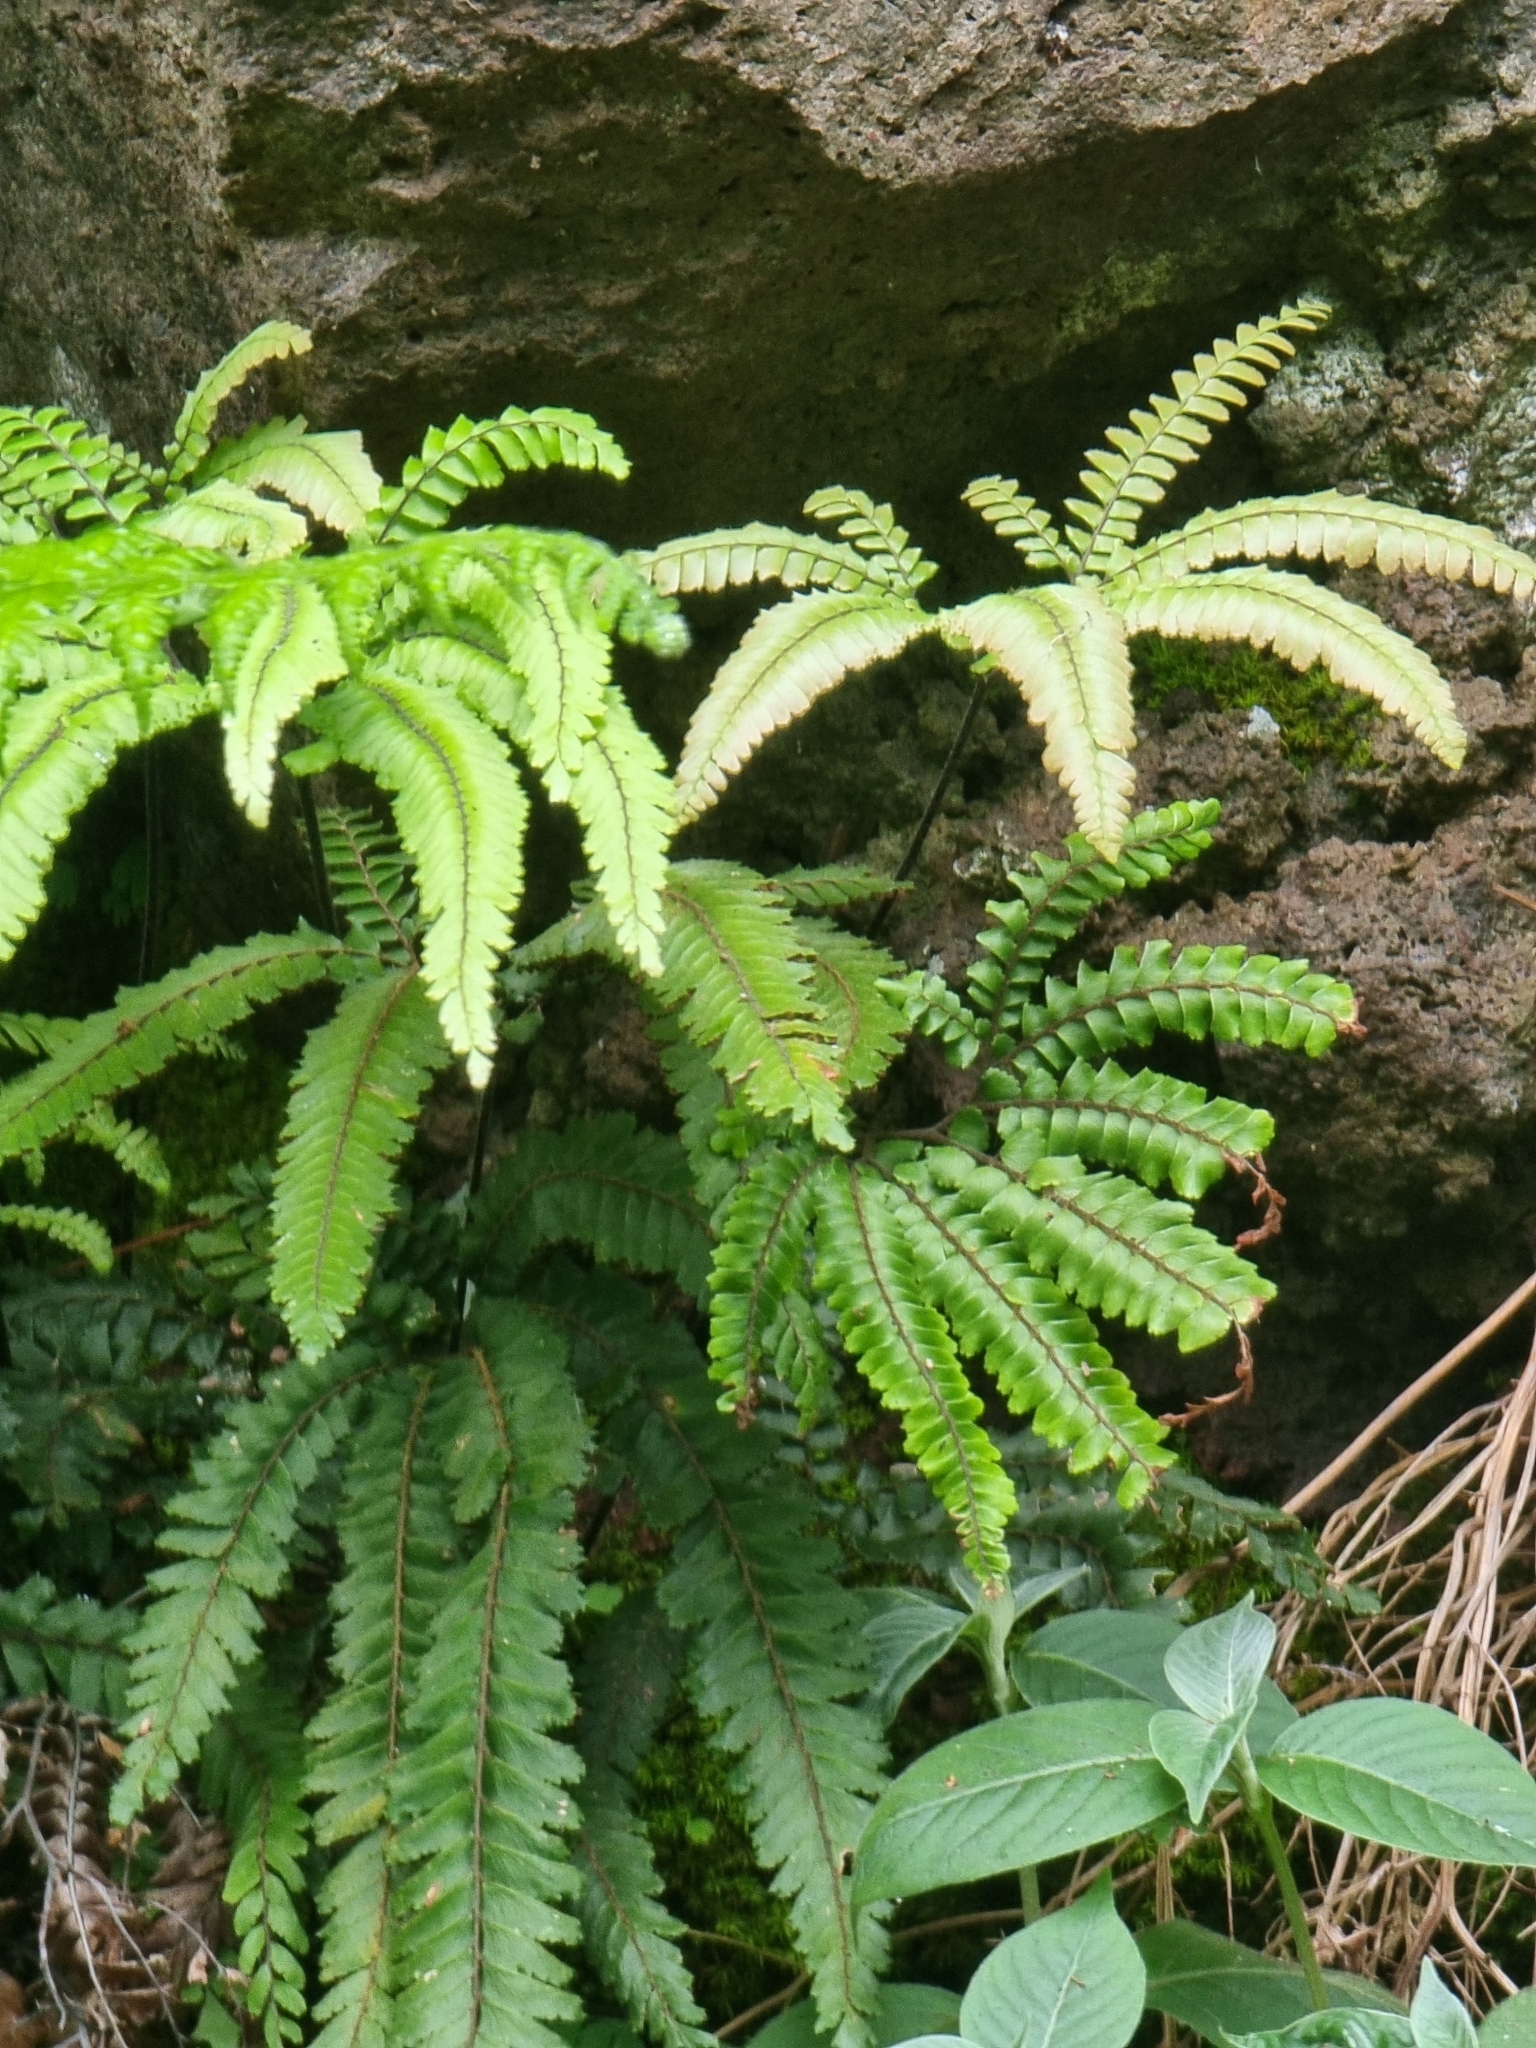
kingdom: Plantae
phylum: Tracheophyta
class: Polypodiopsida
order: Polypodiales
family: Pteridaceae
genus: Adiantum
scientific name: Adiantum hispidulum
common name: Rough maidenhair
